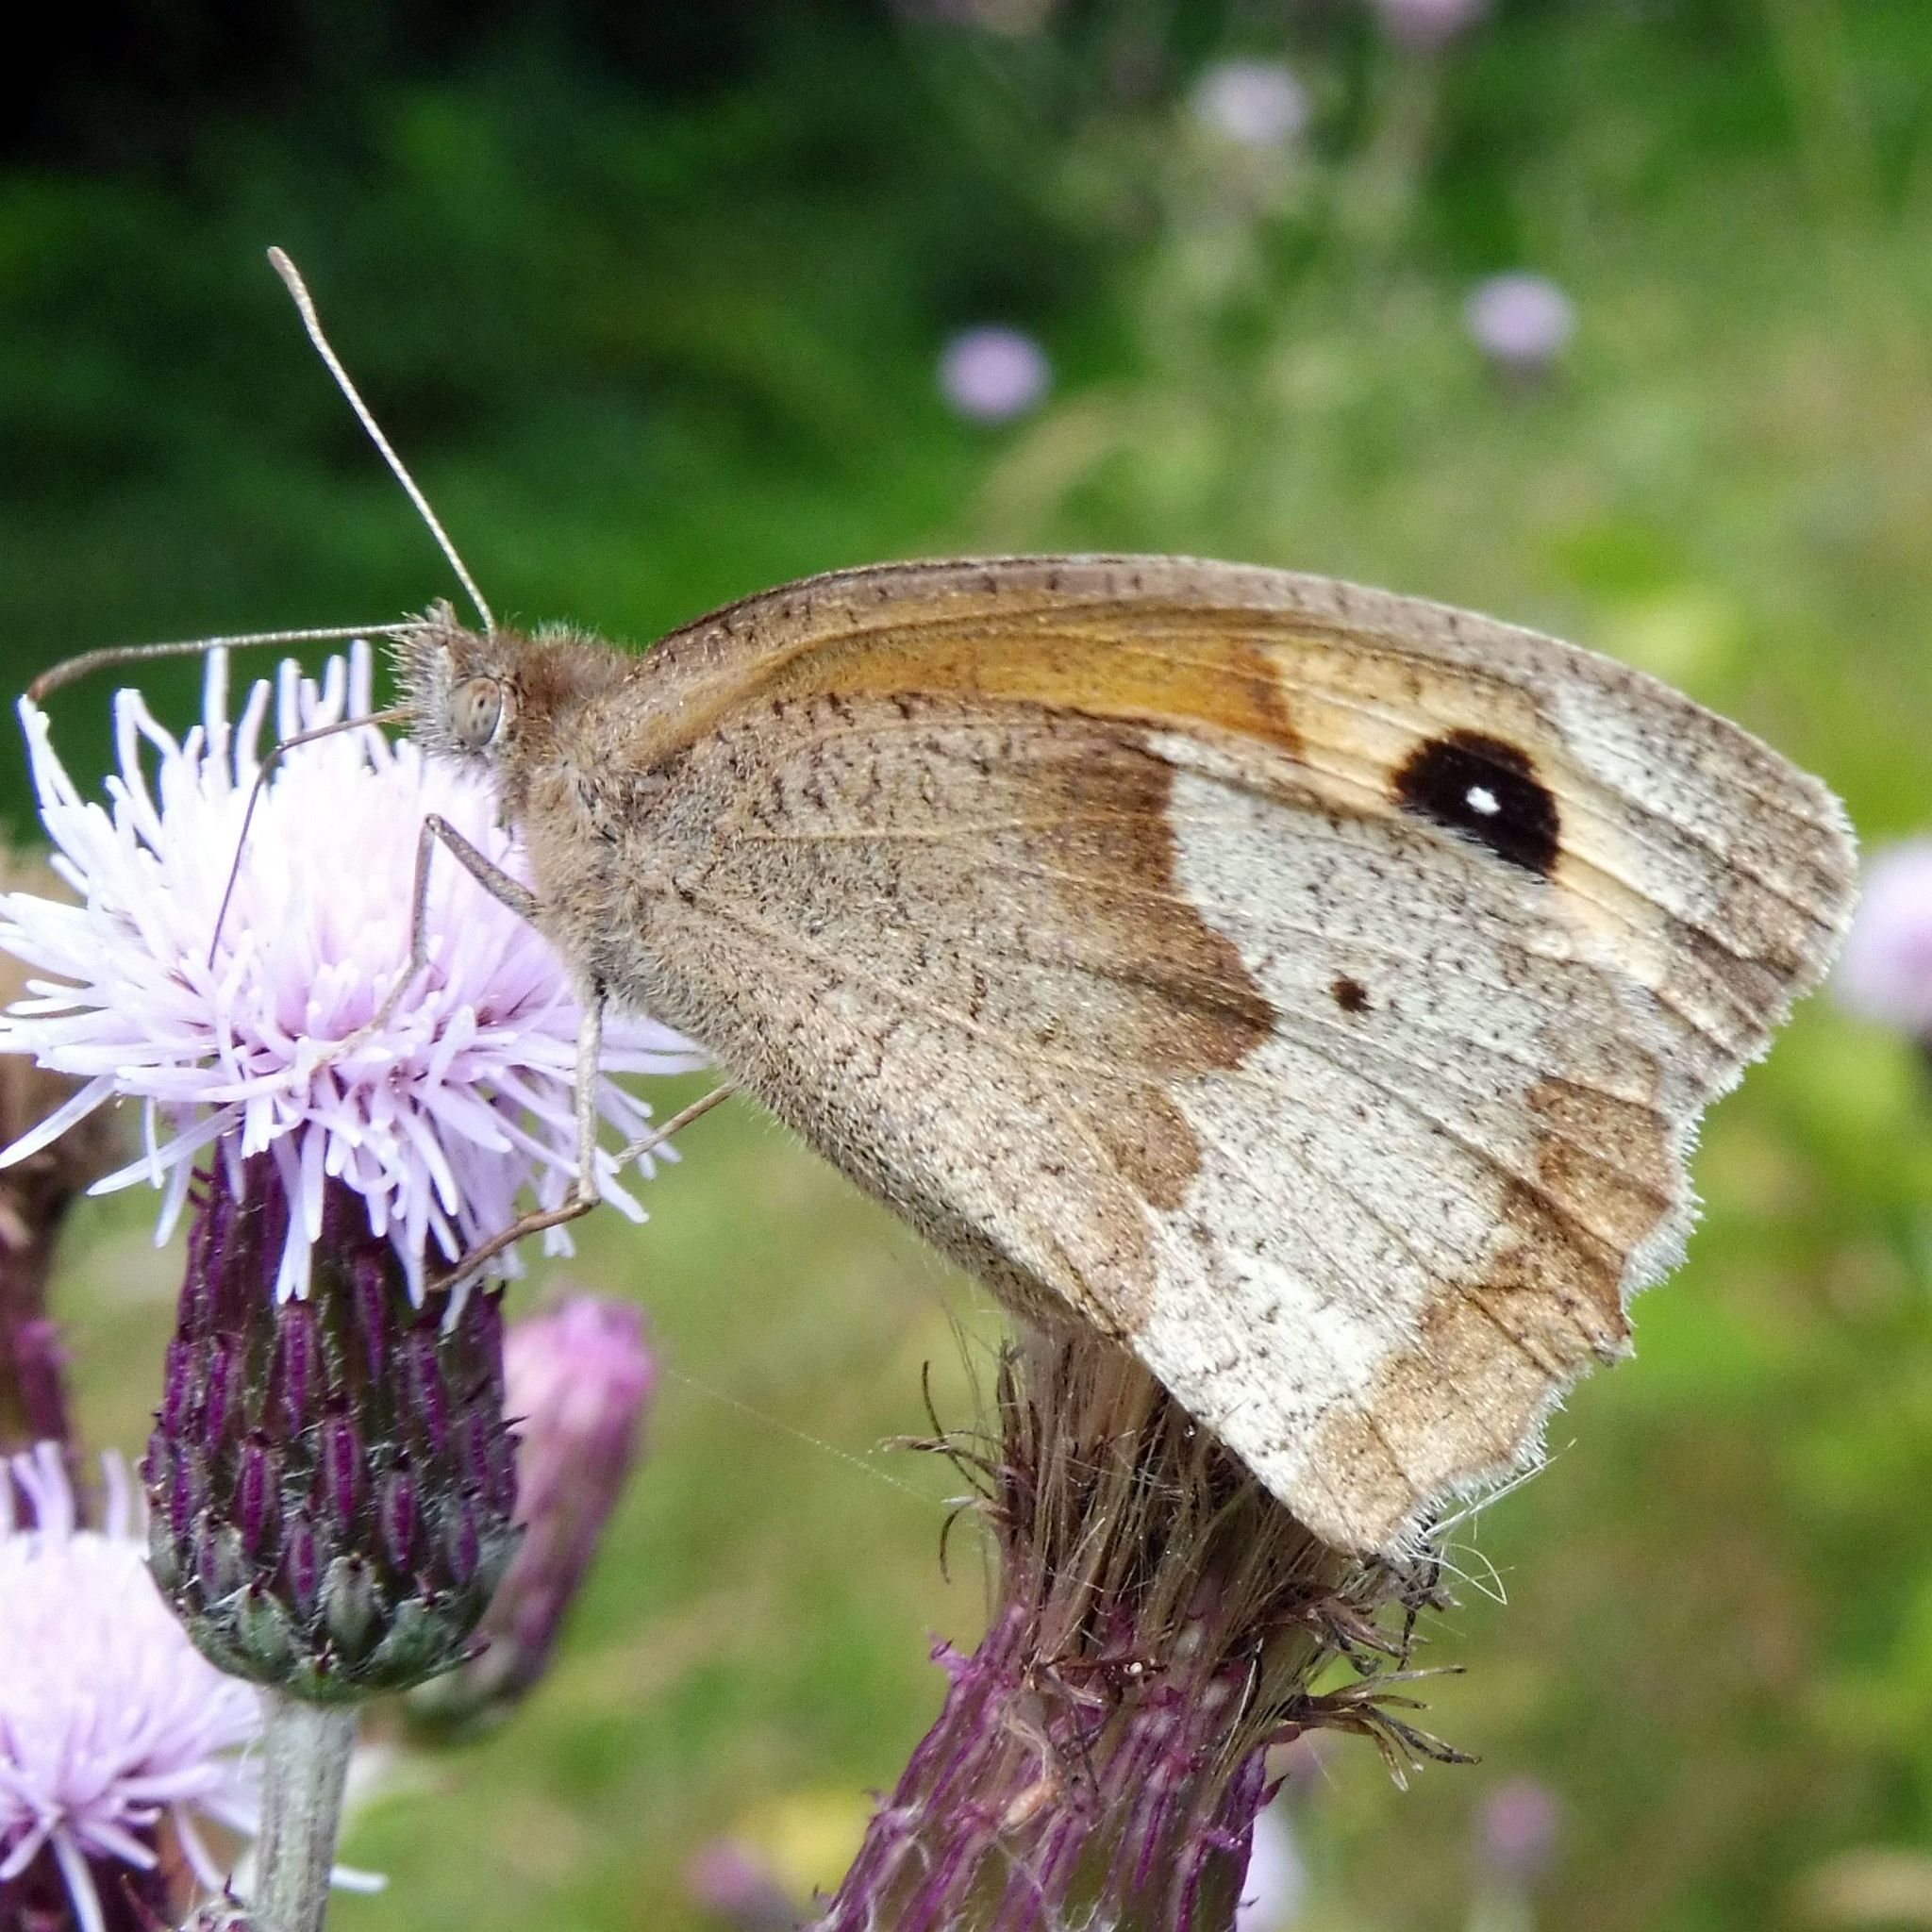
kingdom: Animalia
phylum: Arthropoda
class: Insecta
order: Lepidoptera
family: Nymphalidae
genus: Maniola
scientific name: Maniola jurtina
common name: Meadow brown
